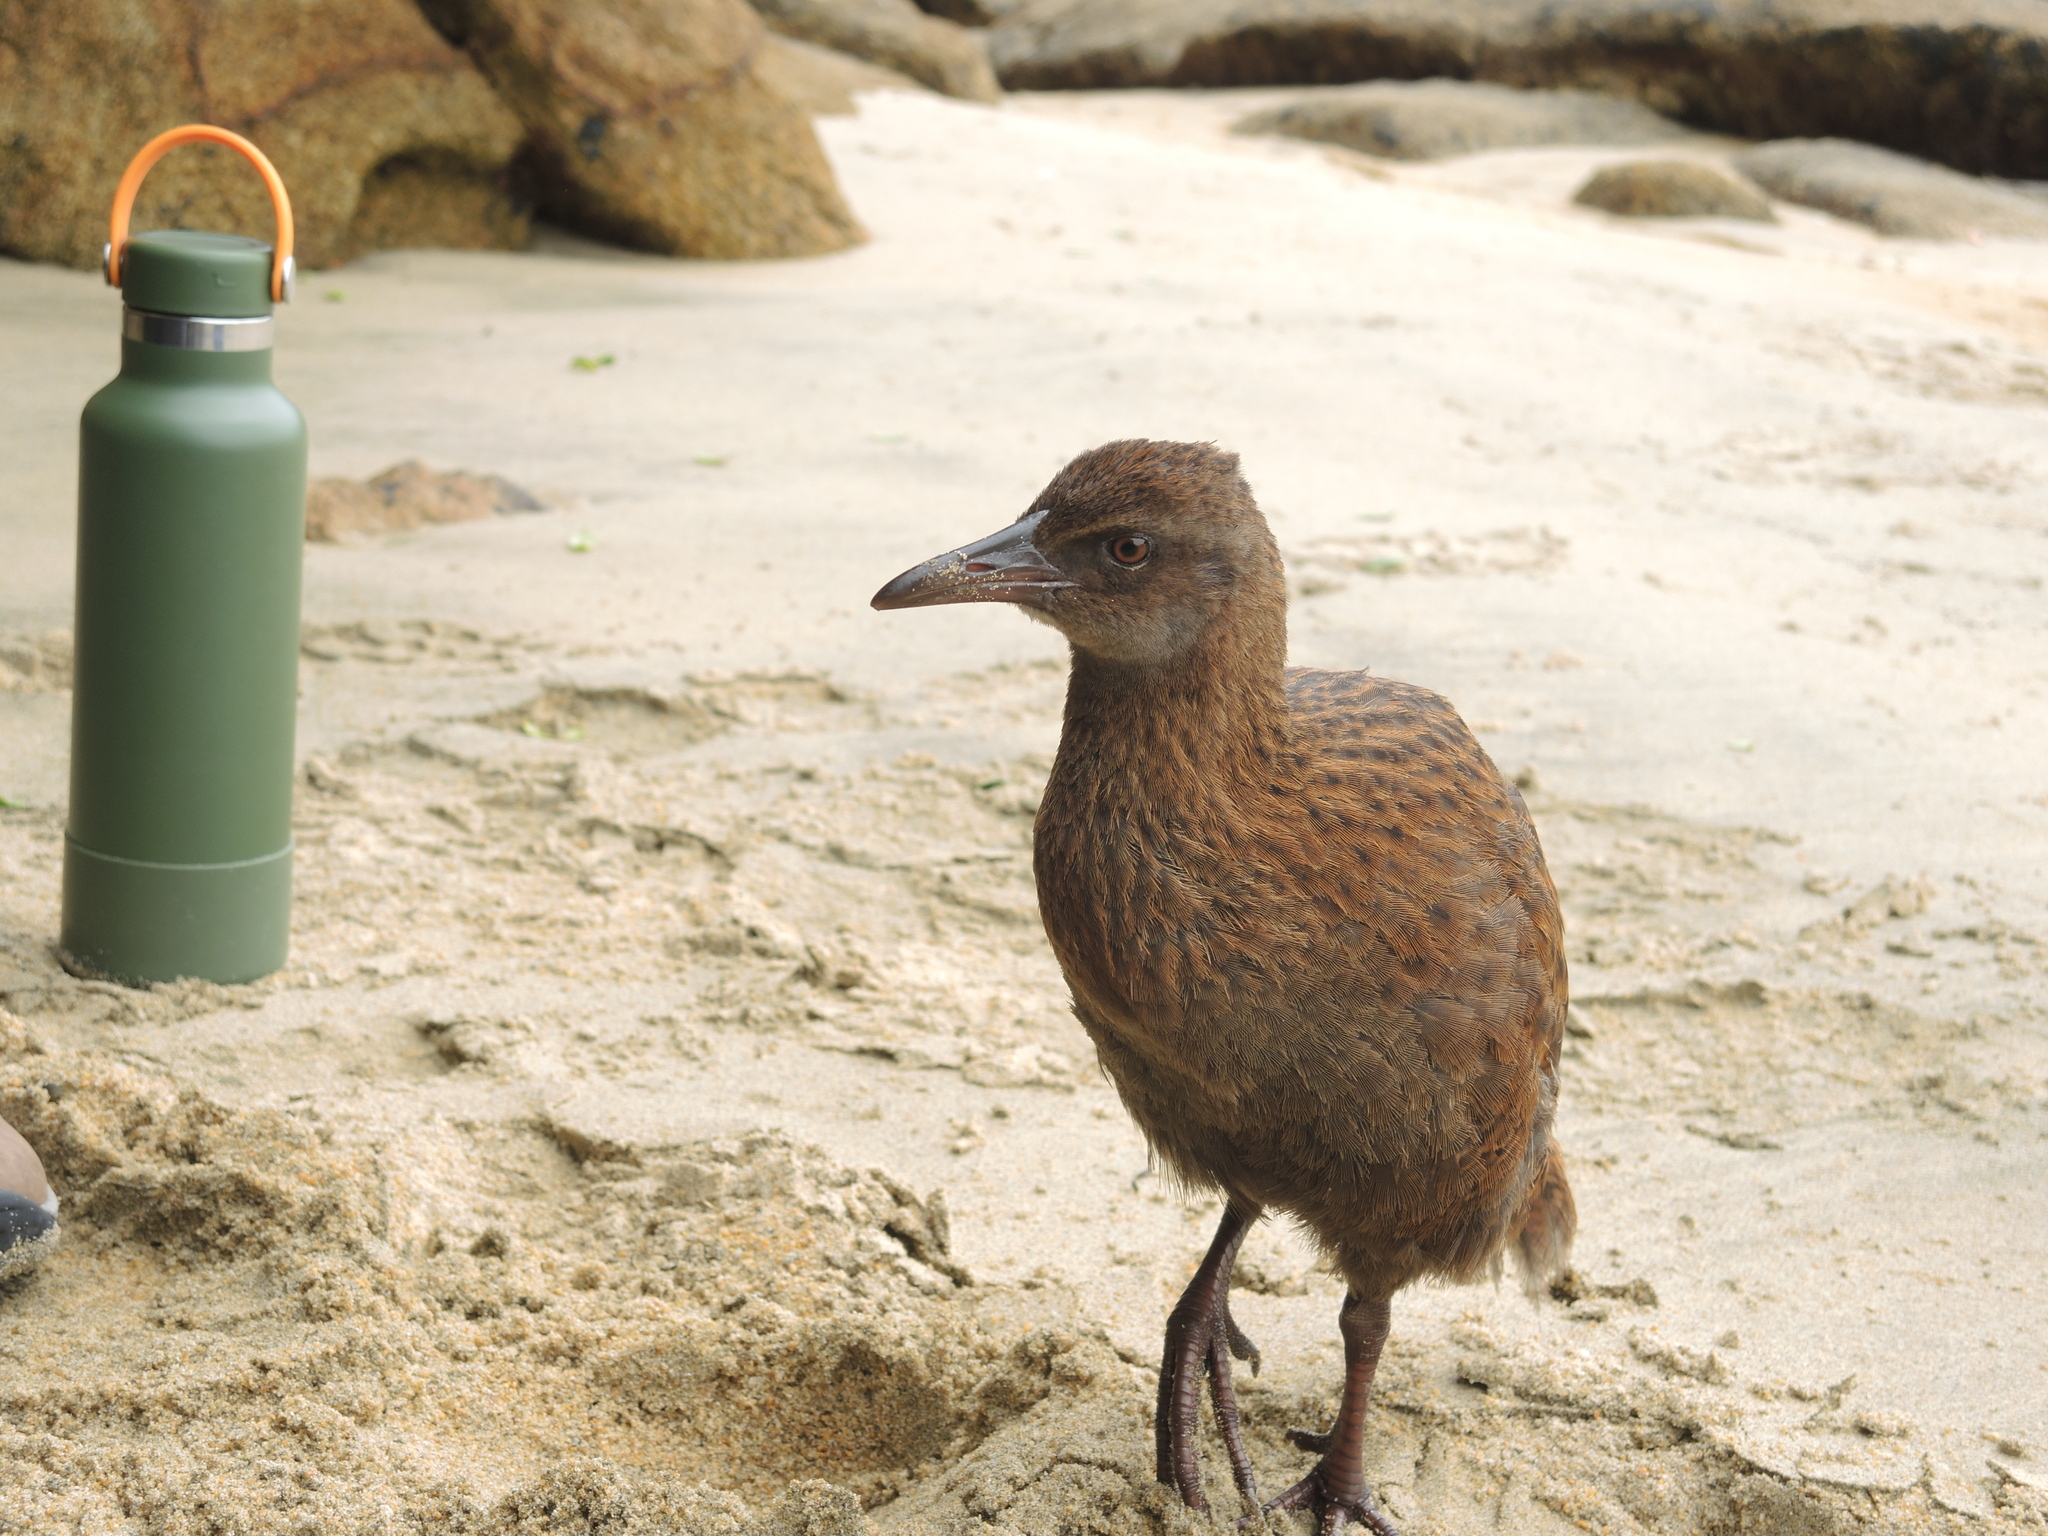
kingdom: Animalia
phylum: Chordata
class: Aves
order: Gruiformes
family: Rallidae
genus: Gallirallus
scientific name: Gallirallus australis
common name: Weka
